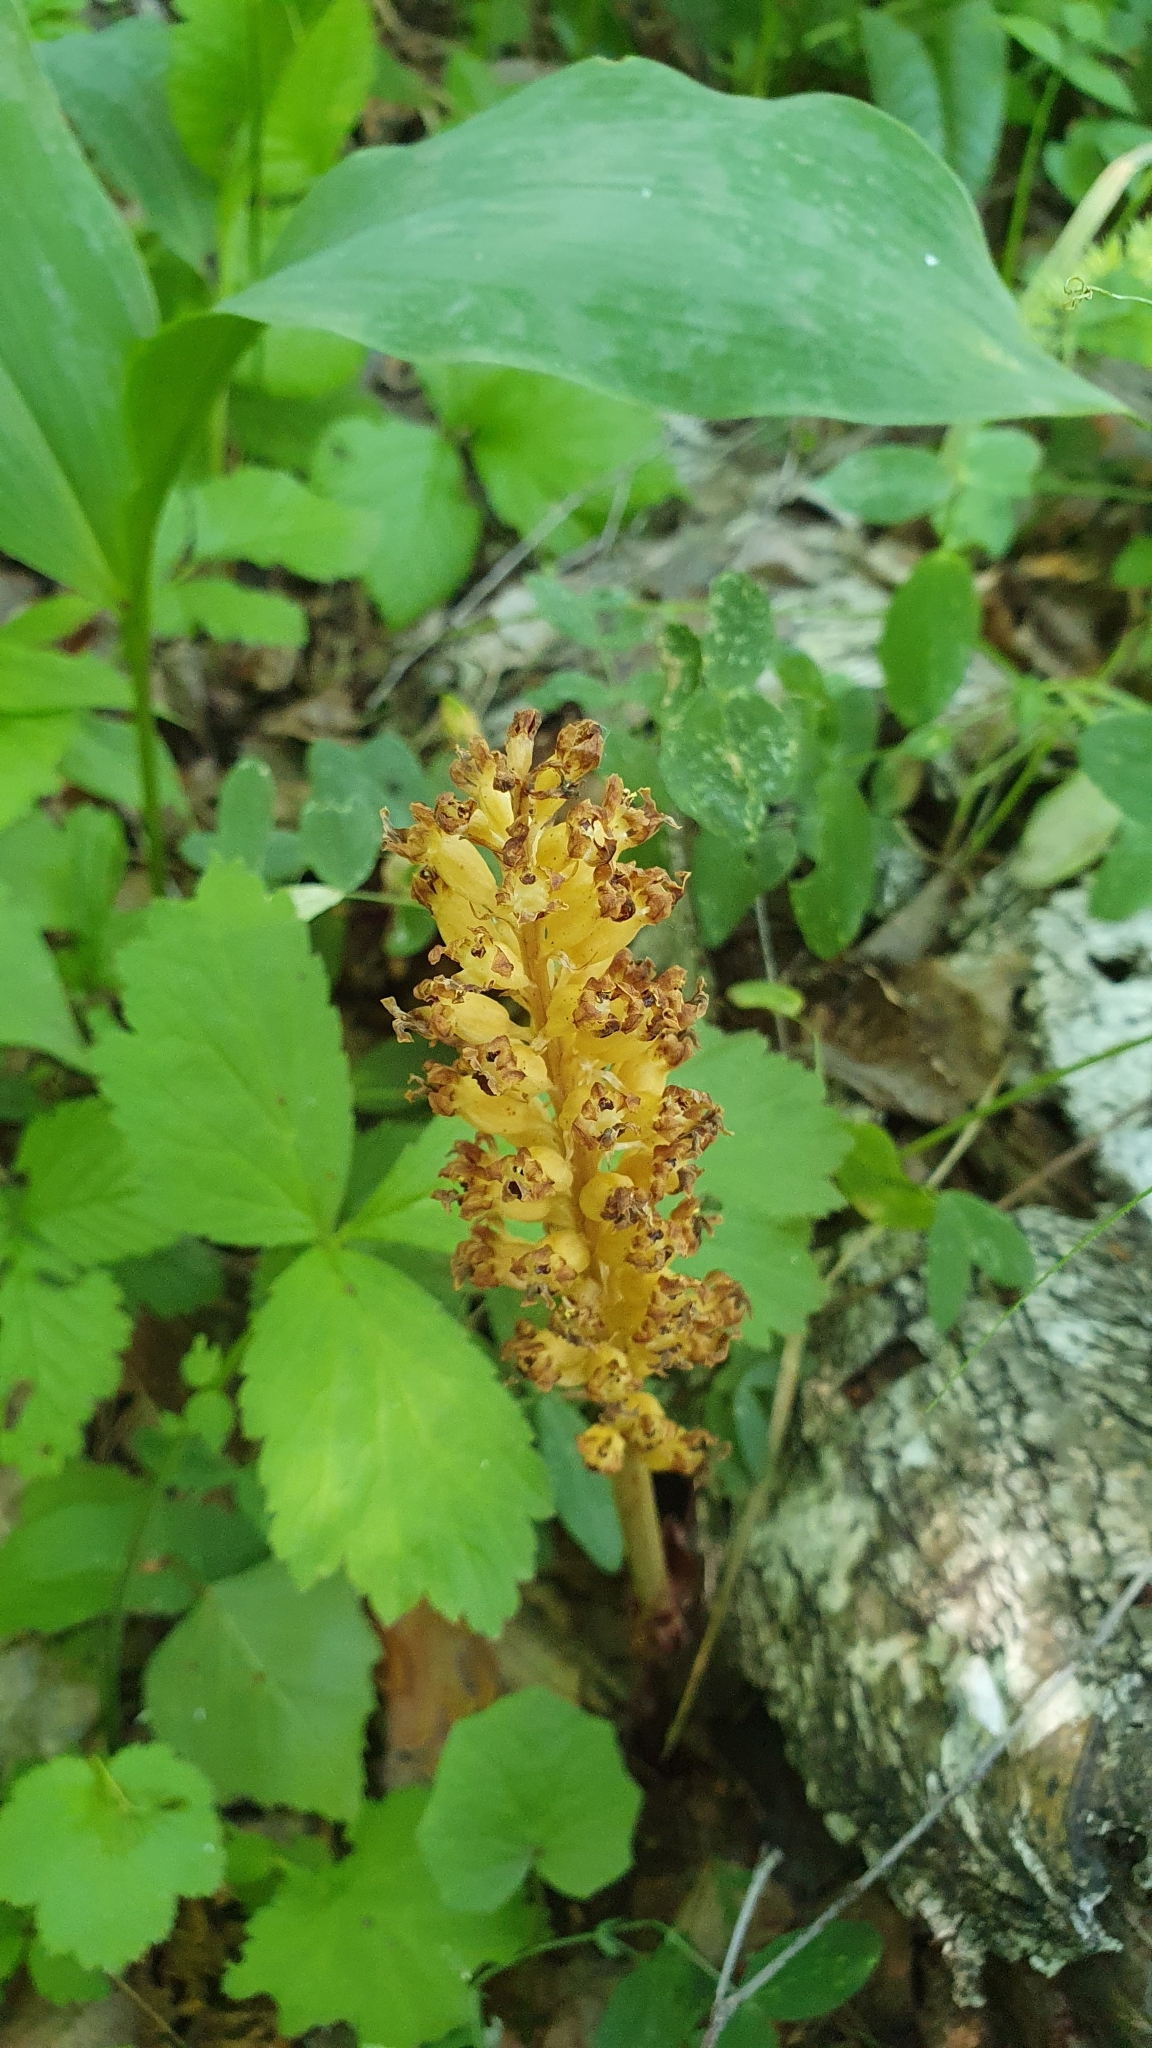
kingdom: Plantae
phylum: Tracheophyta
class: Liliopsida
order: Asparagales
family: Orchidaceae
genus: Neottia
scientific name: Neottia nidus-avis
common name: Bird's-nest orchid
